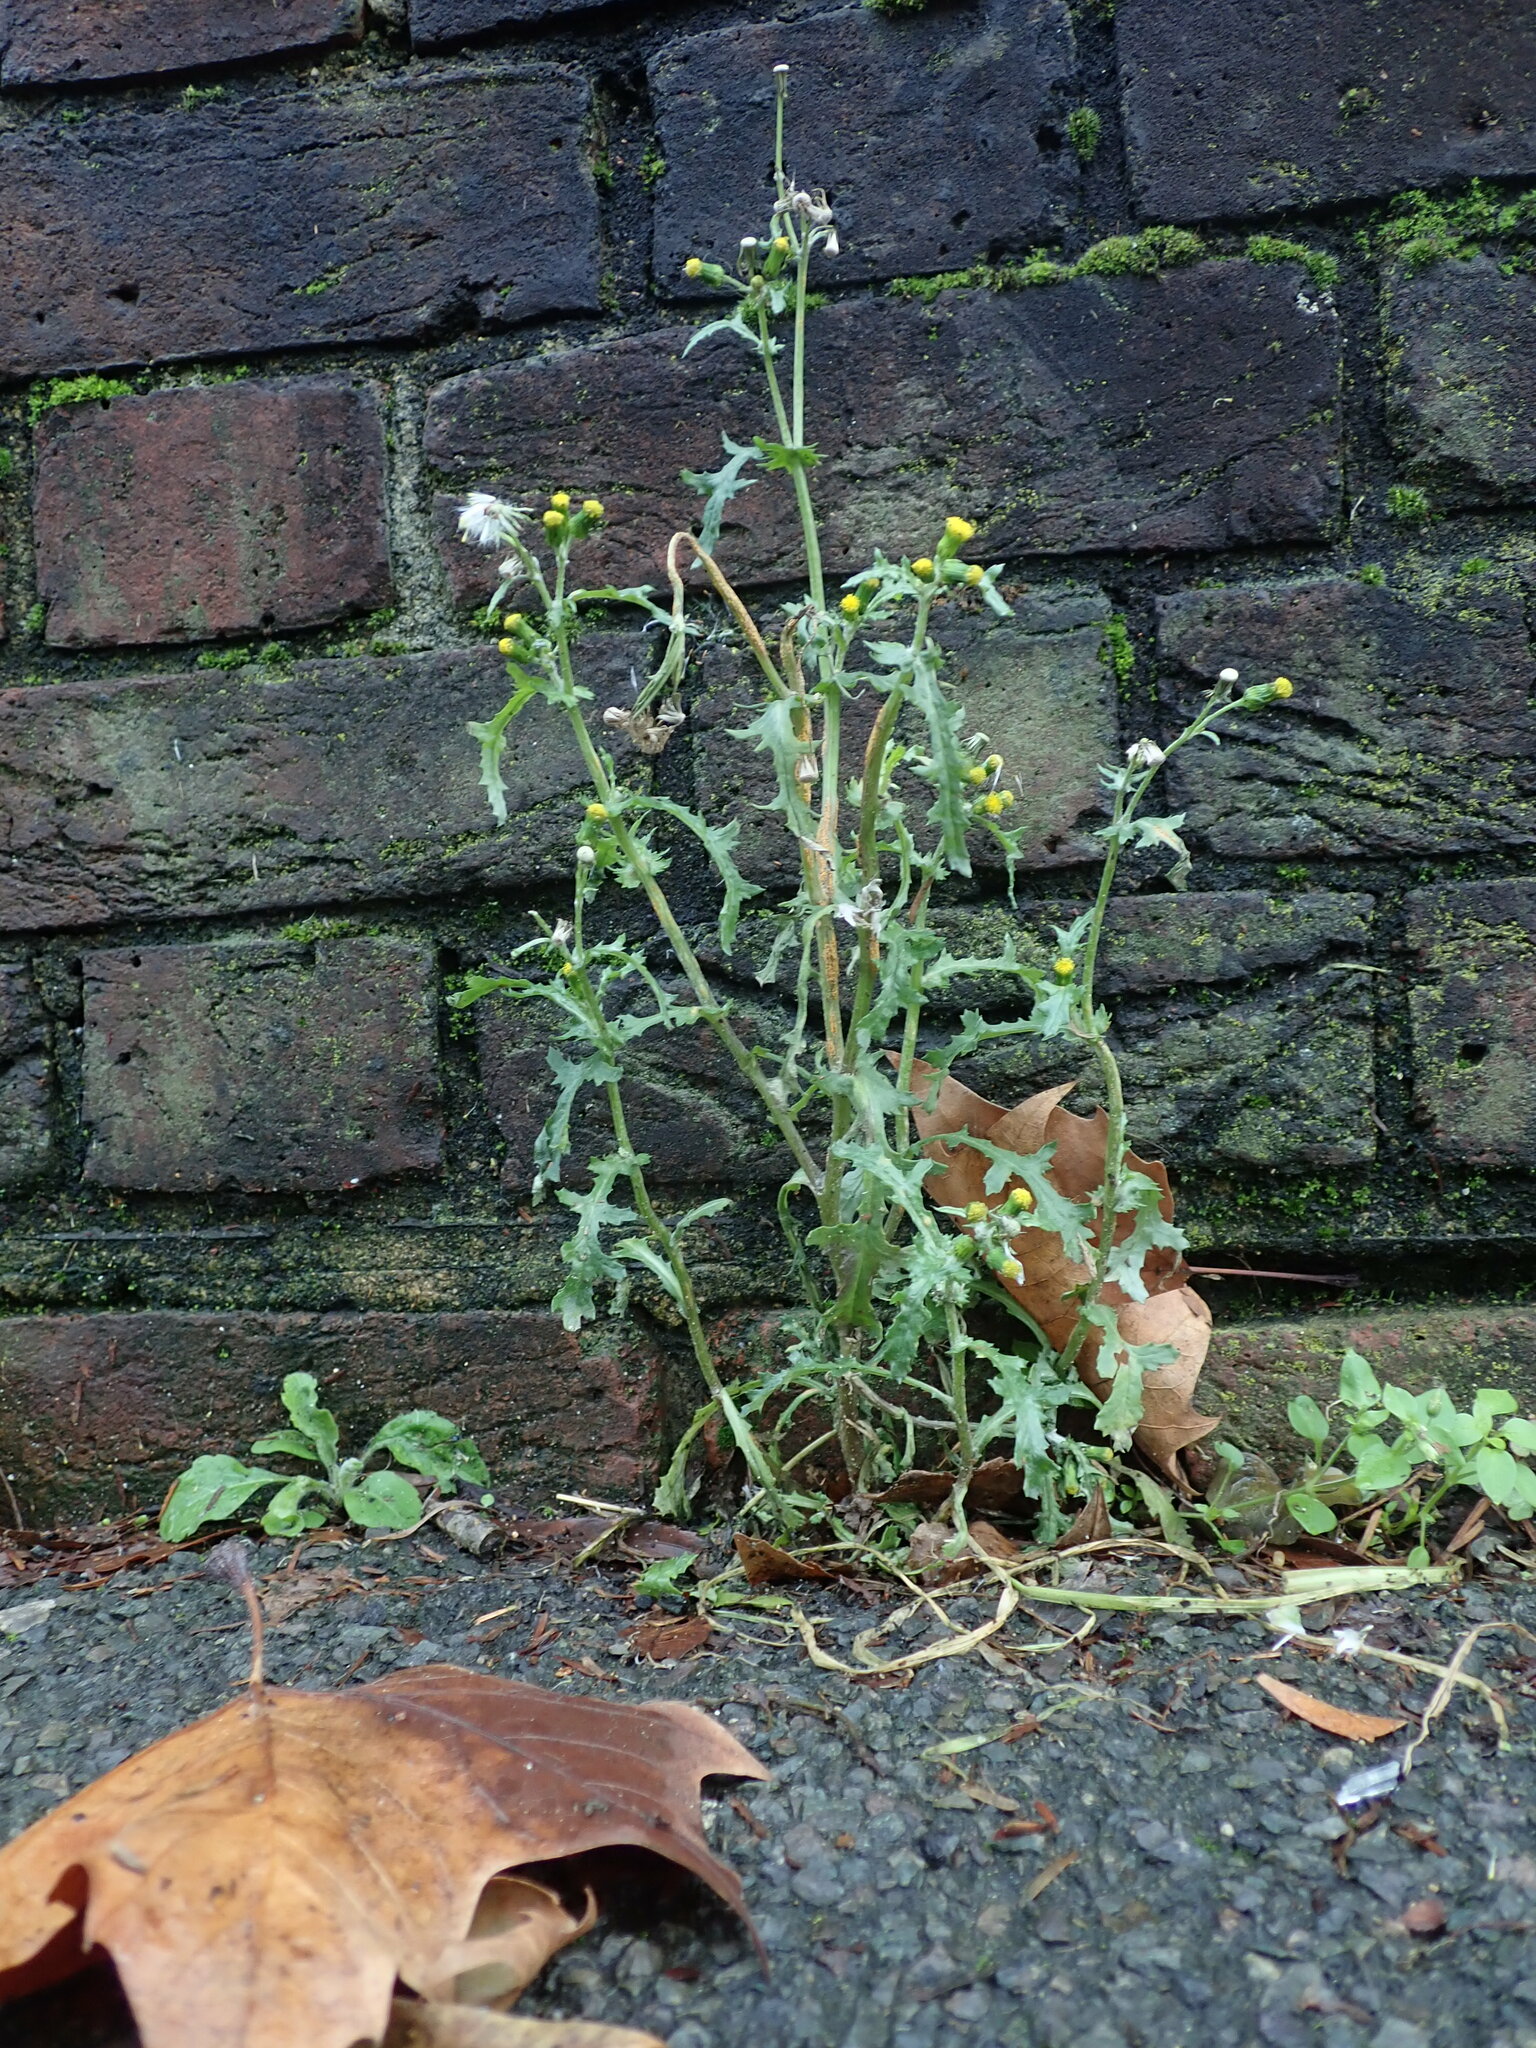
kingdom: Plantae
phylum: Tracheophyta
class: Magnoliopsida
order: Asterales
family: Asteraceae
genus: Senecio
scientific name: Senecio vulgaris
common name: Old-man-in-the-spring
